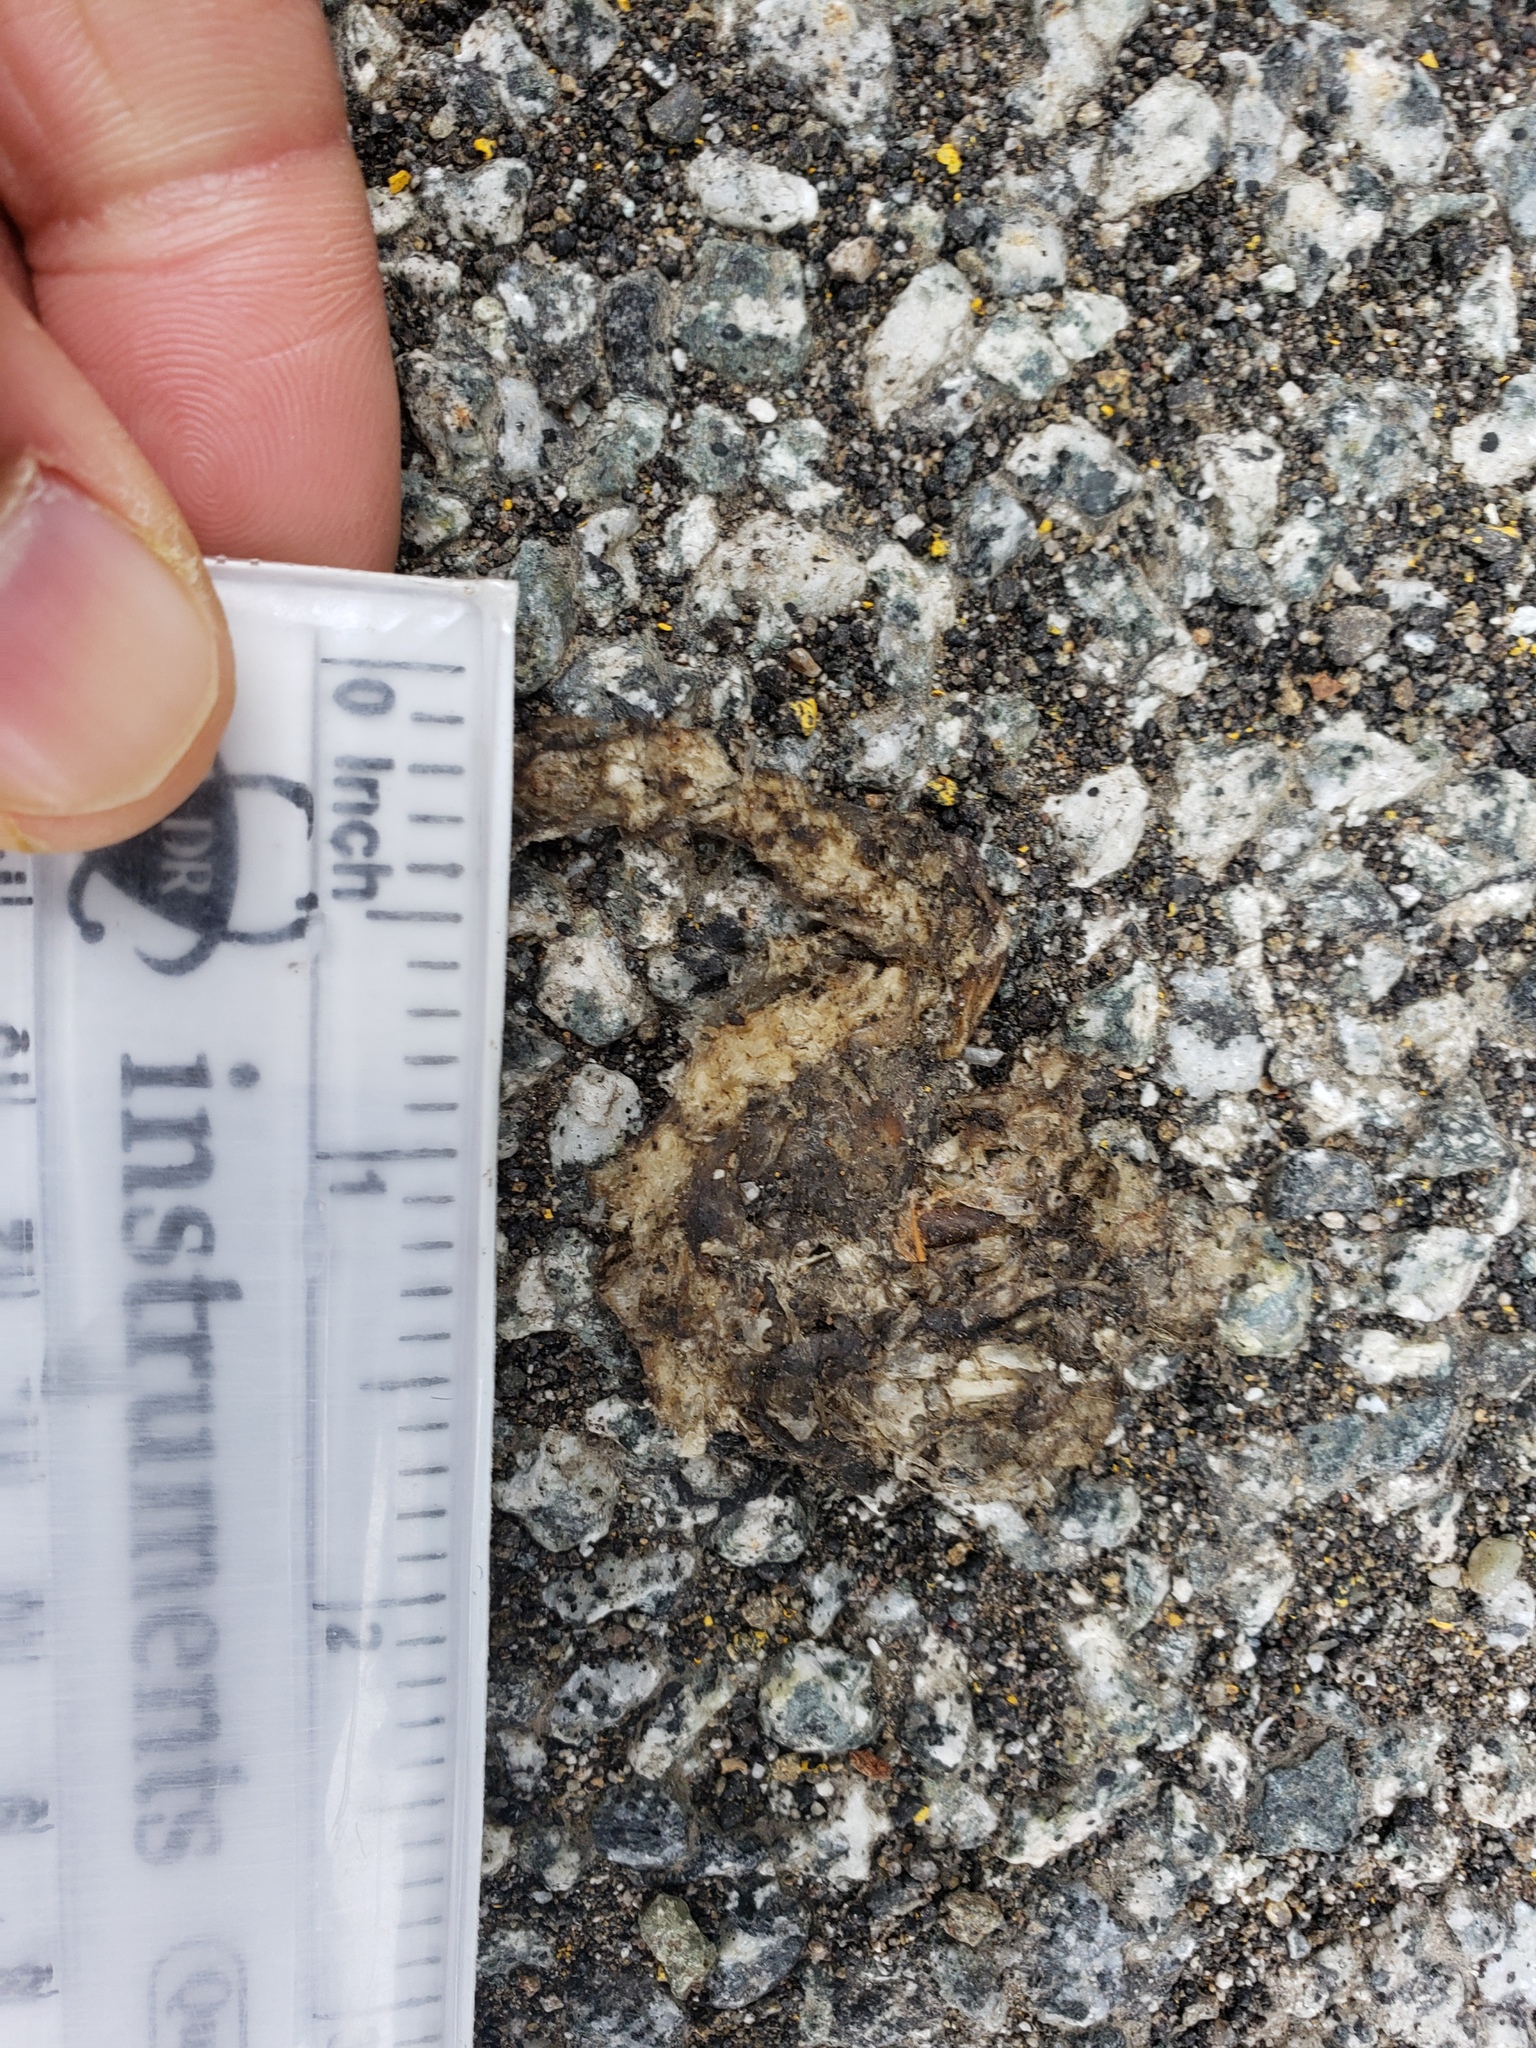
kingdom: Animalia
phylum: Chordata
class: Amphibia
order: Caudata
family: Salamandridae
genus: Taricha
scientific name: Taricha
